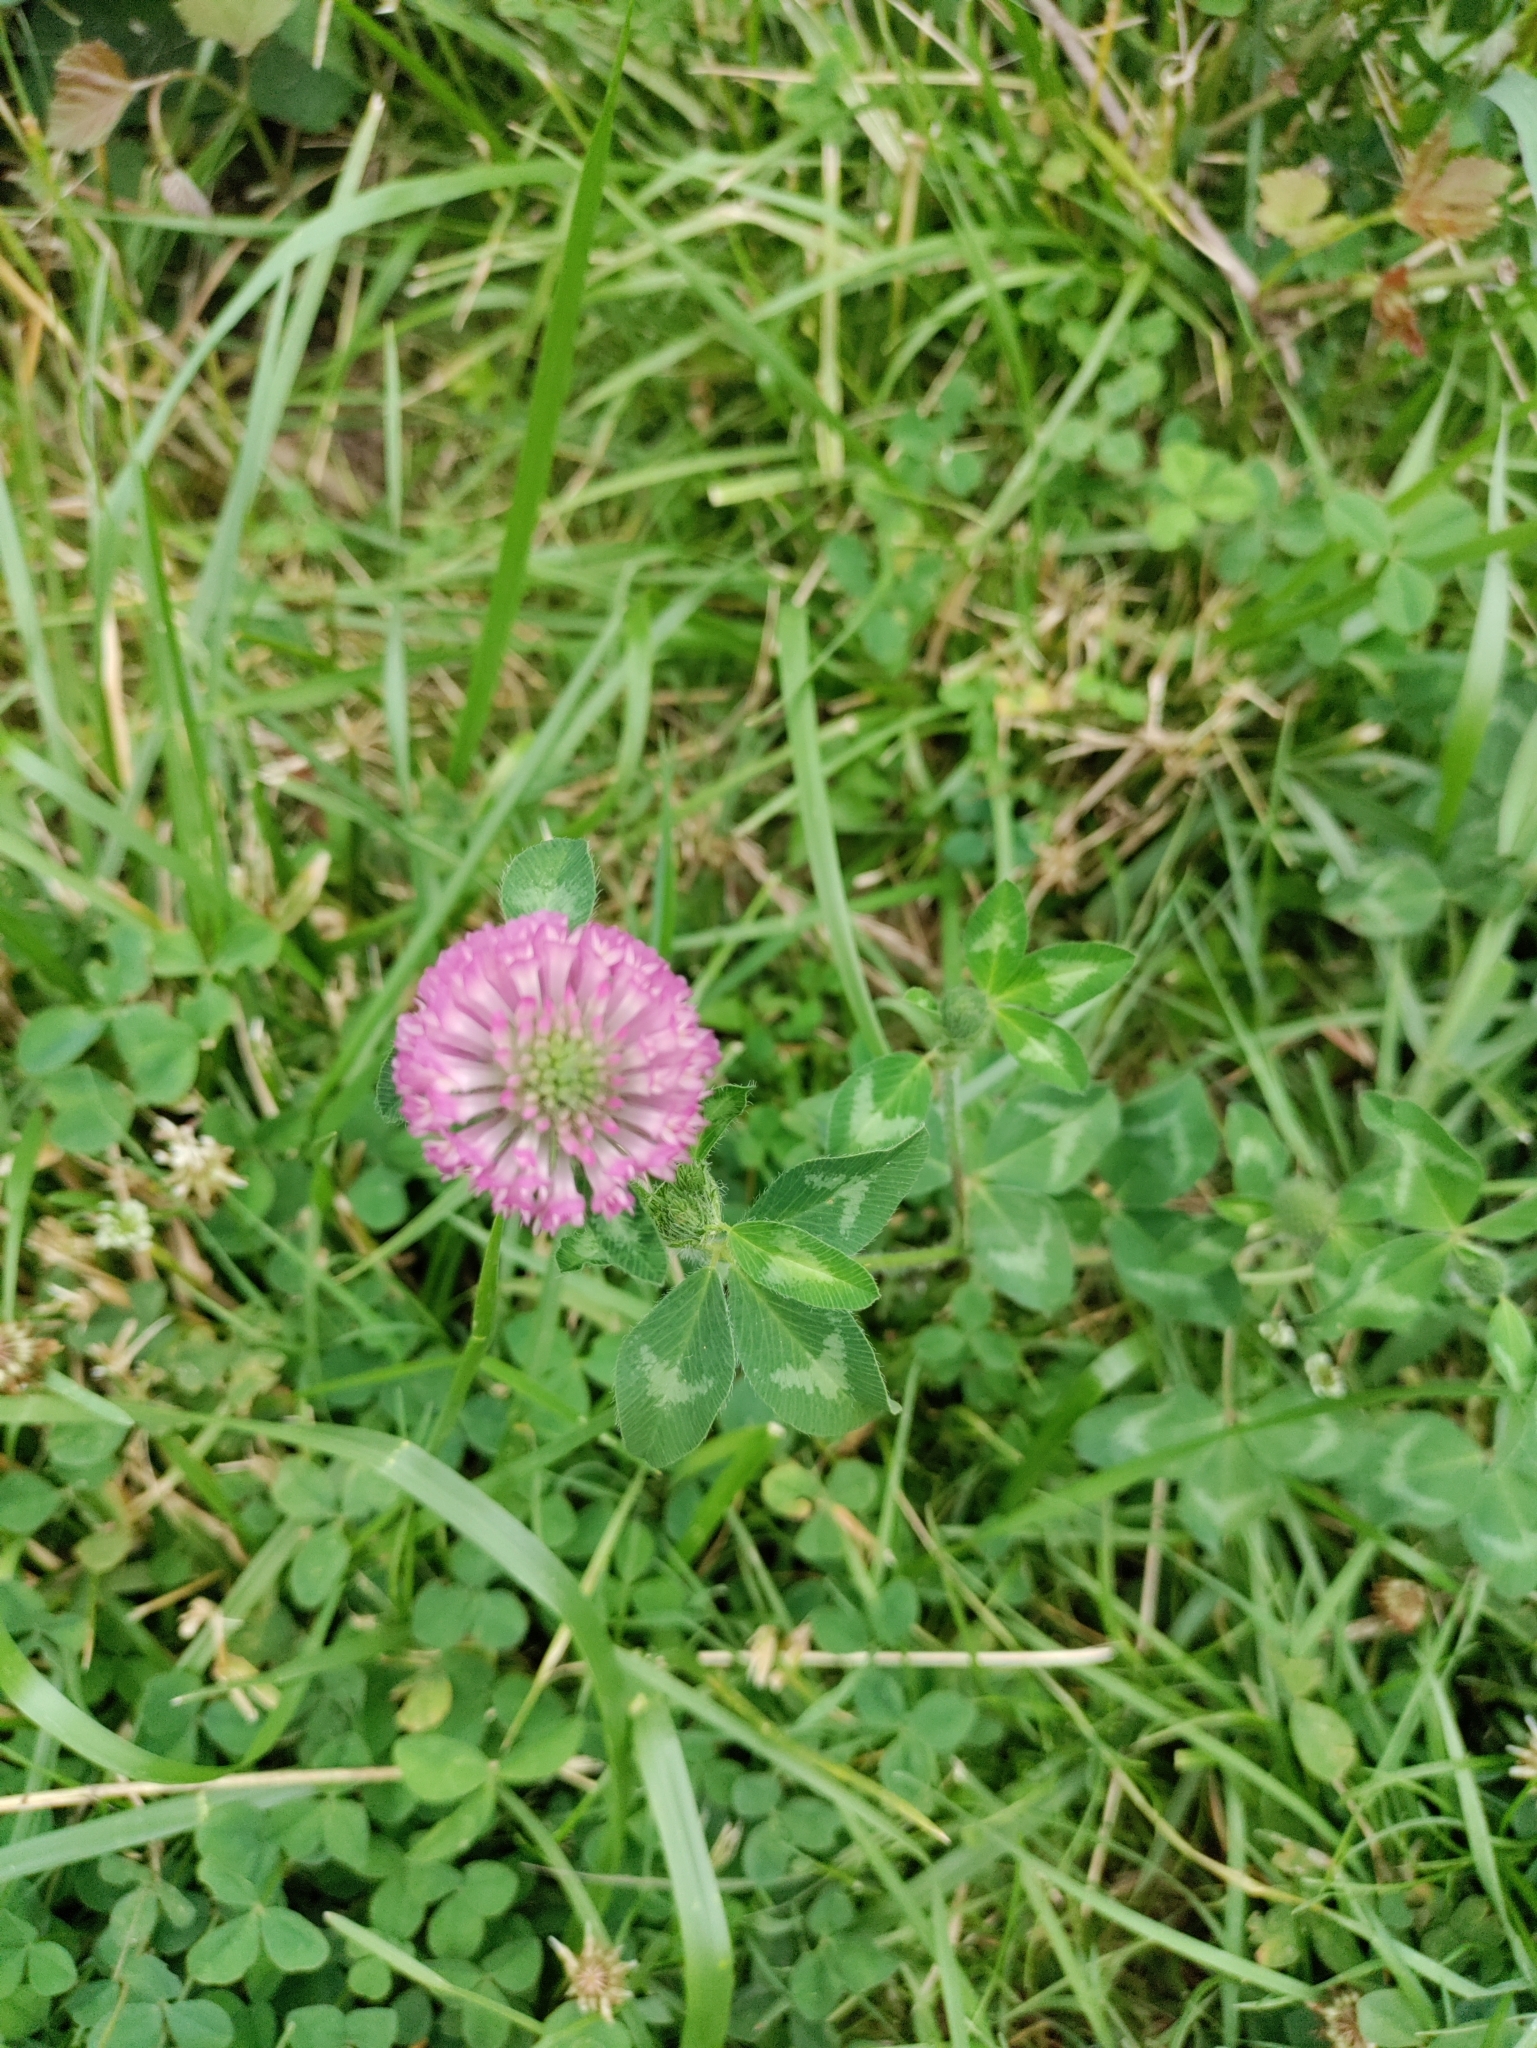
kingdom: Plantae
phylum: Tracheophyta
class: Magnoliopsida
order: Fabales
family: Fabaceae
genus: Trifolium
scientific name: Trifolium pratense
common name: Red clover
